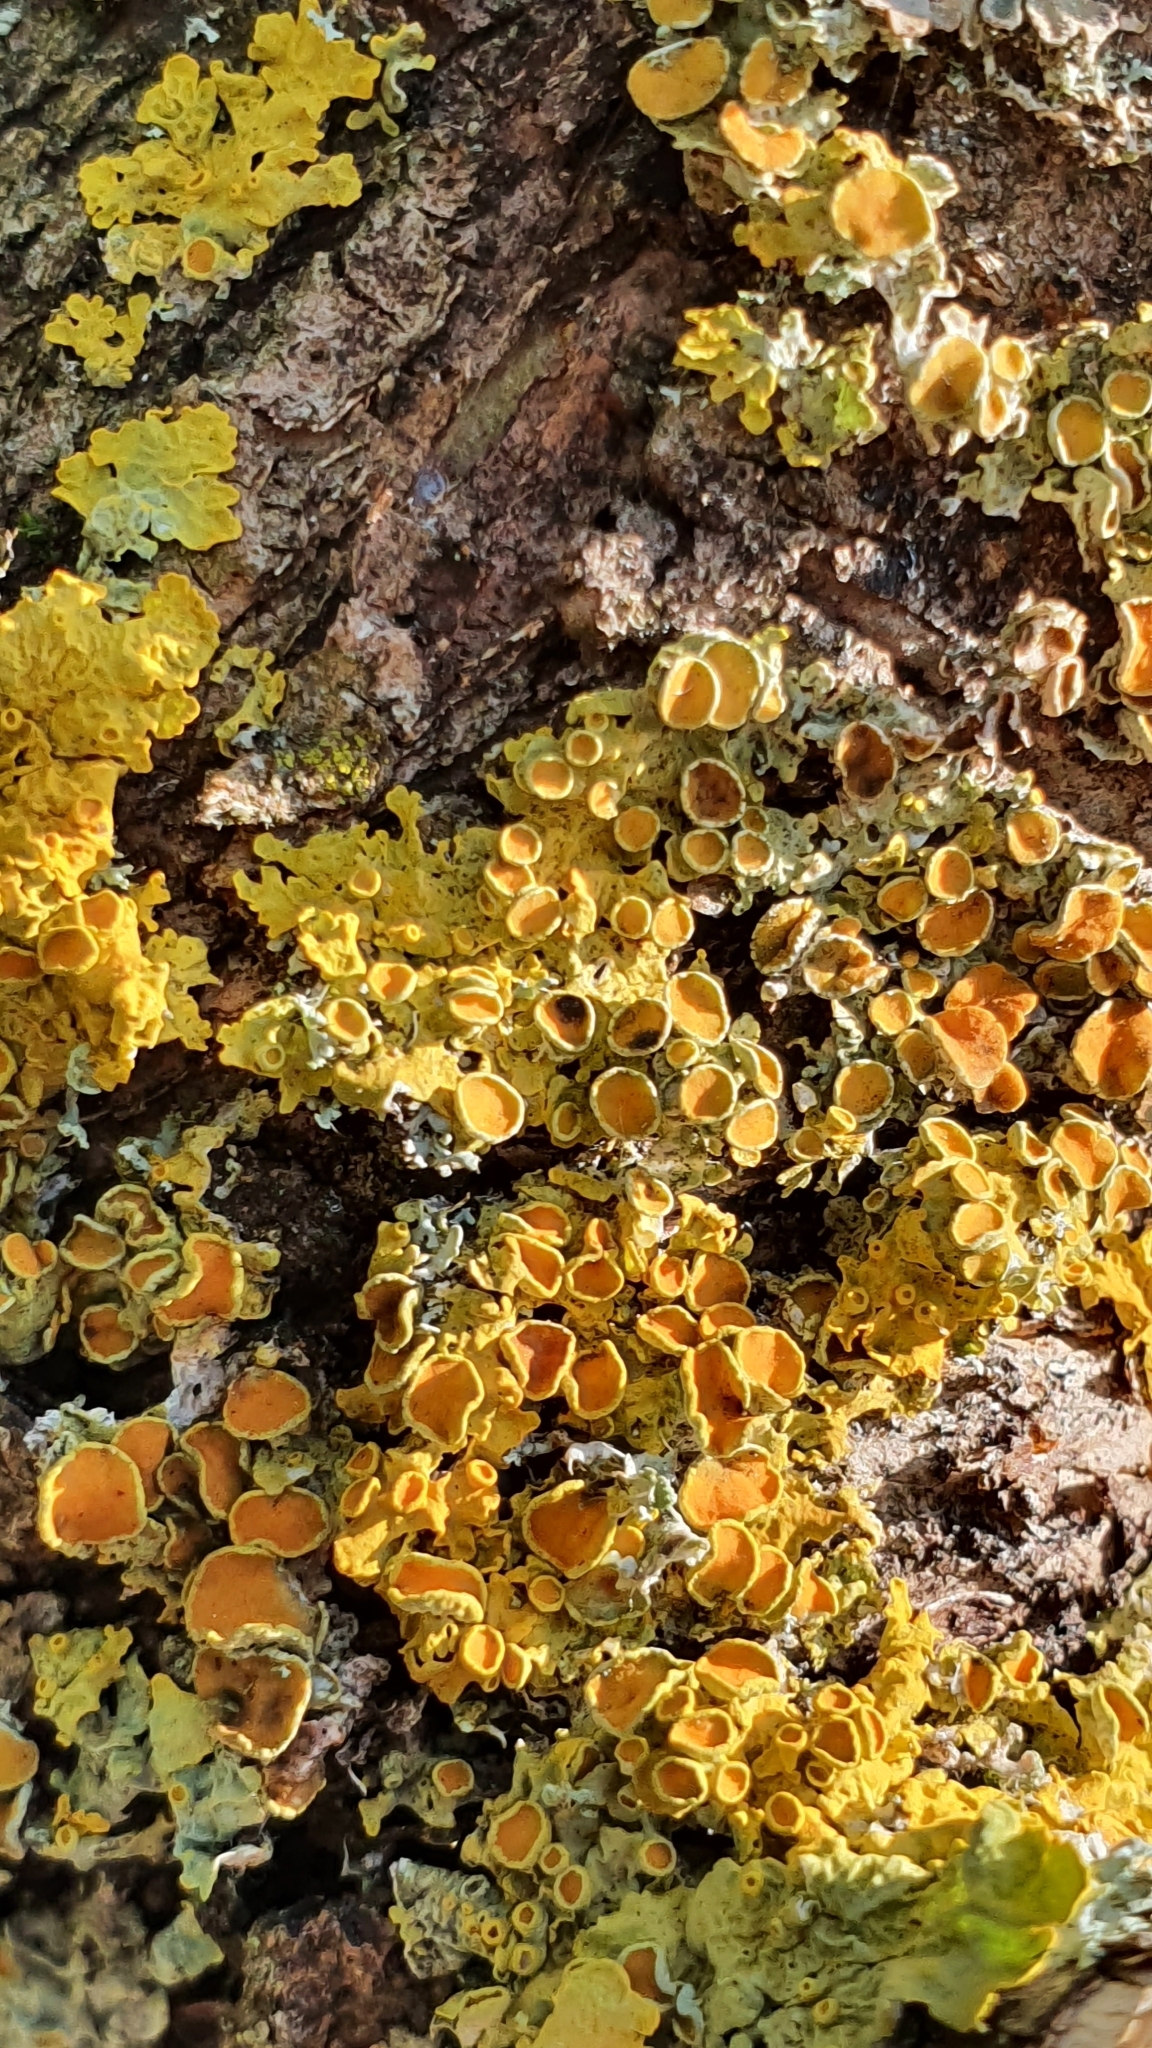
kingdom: Fungi
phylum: Ascomycota
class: Lecanoromycetes
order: Teloschistales
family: Teloschistaceae
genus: Xanthoria
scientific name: Xanthoria parietina
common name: Common orange lichen
